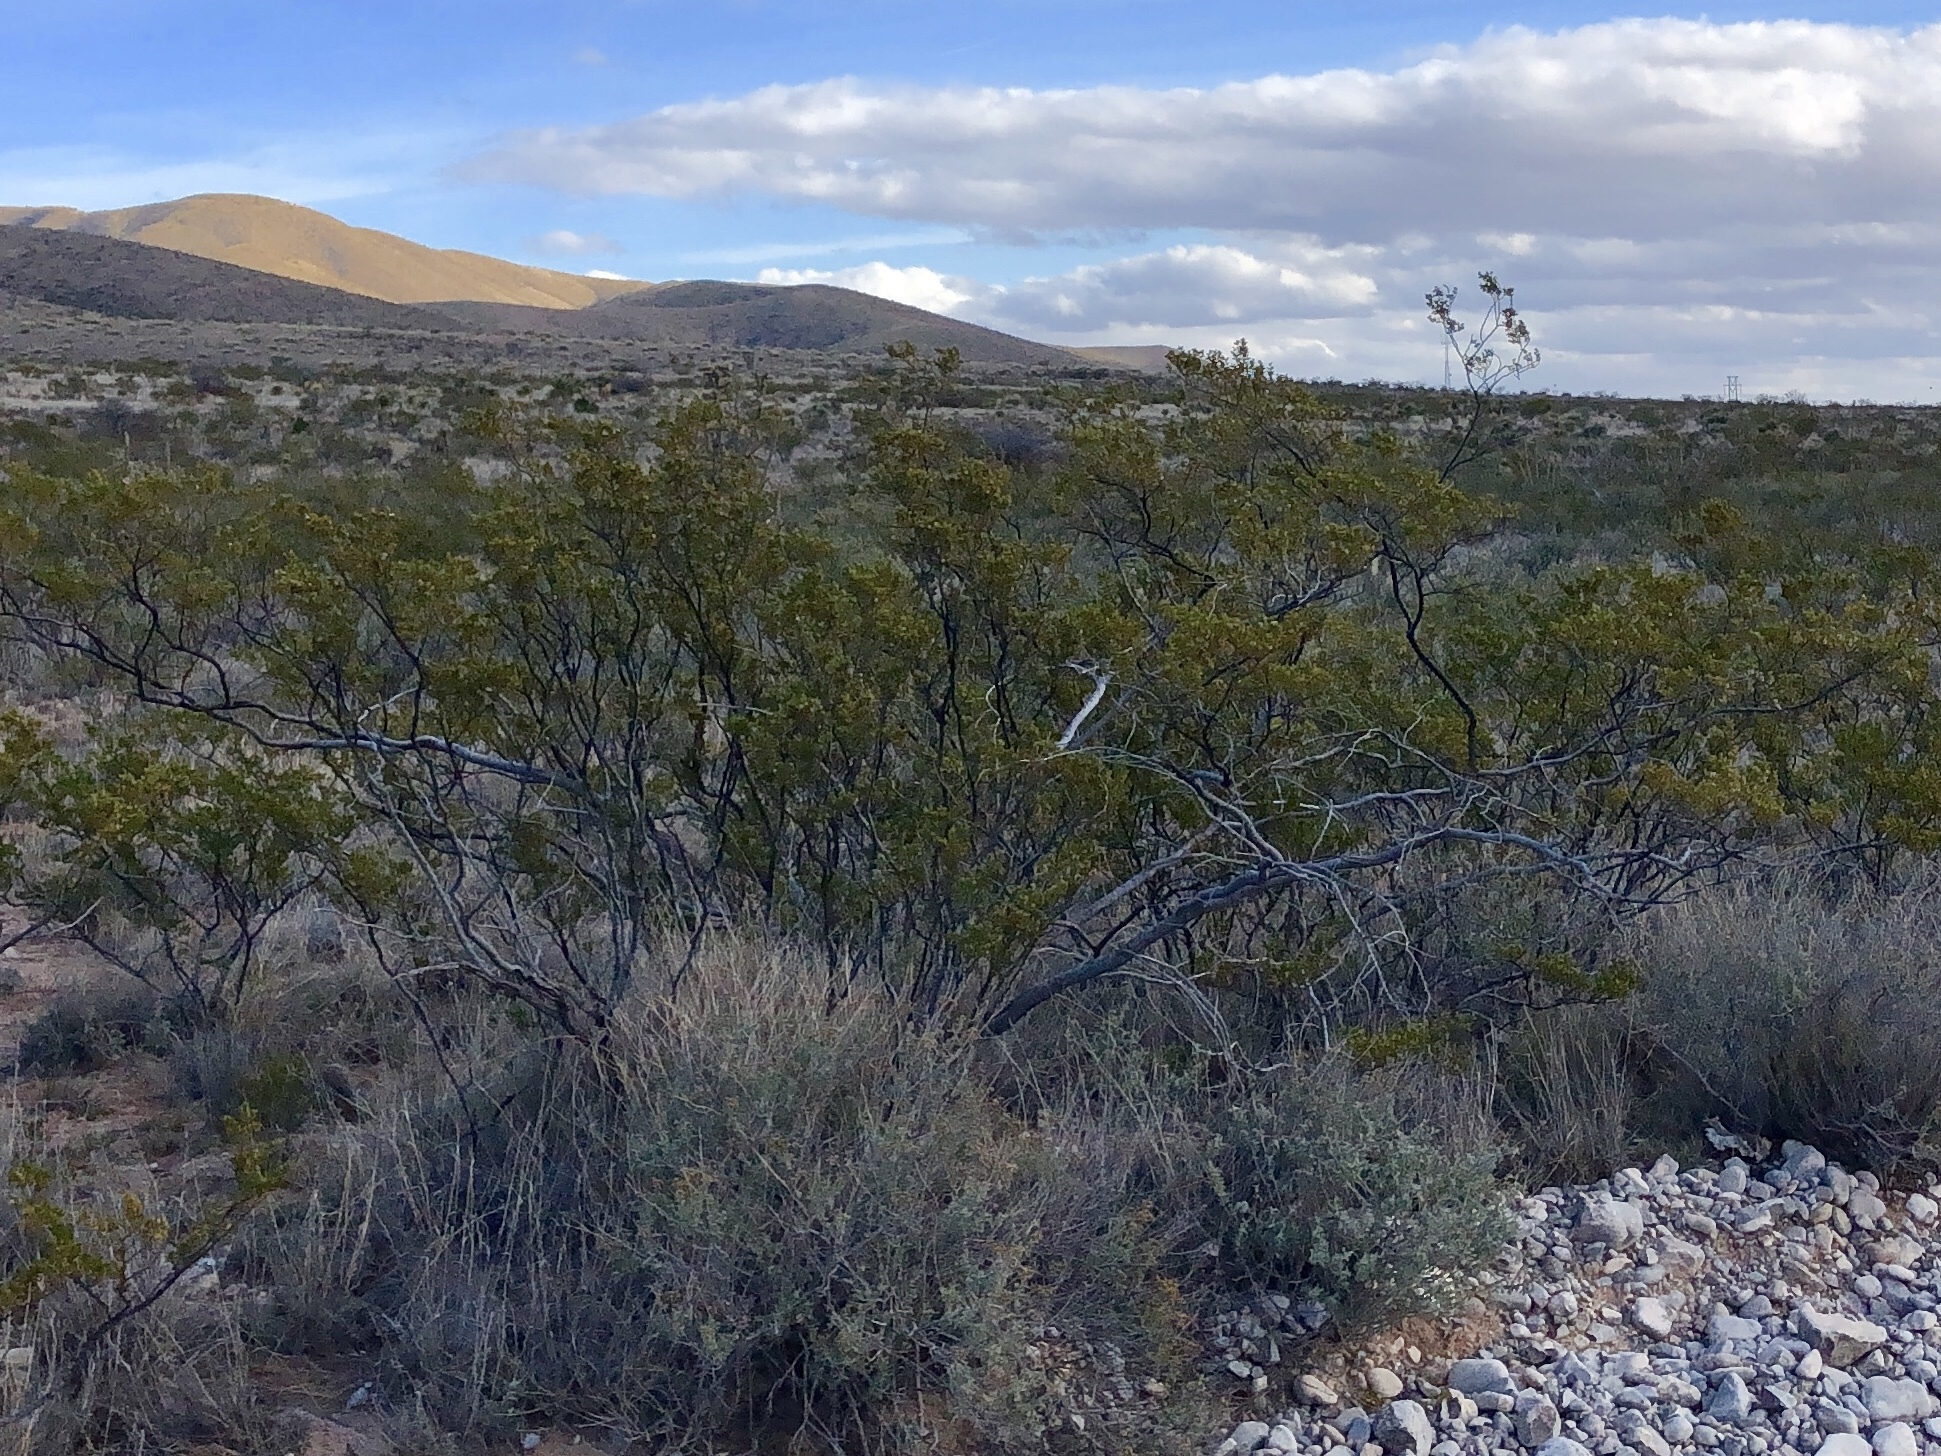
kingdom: Plantae
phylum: Tracheophyta
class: Magnoliopsida
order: Zygophyllales
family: Zygophyllaceae
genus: Larrea
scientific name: Larrea tridentata
